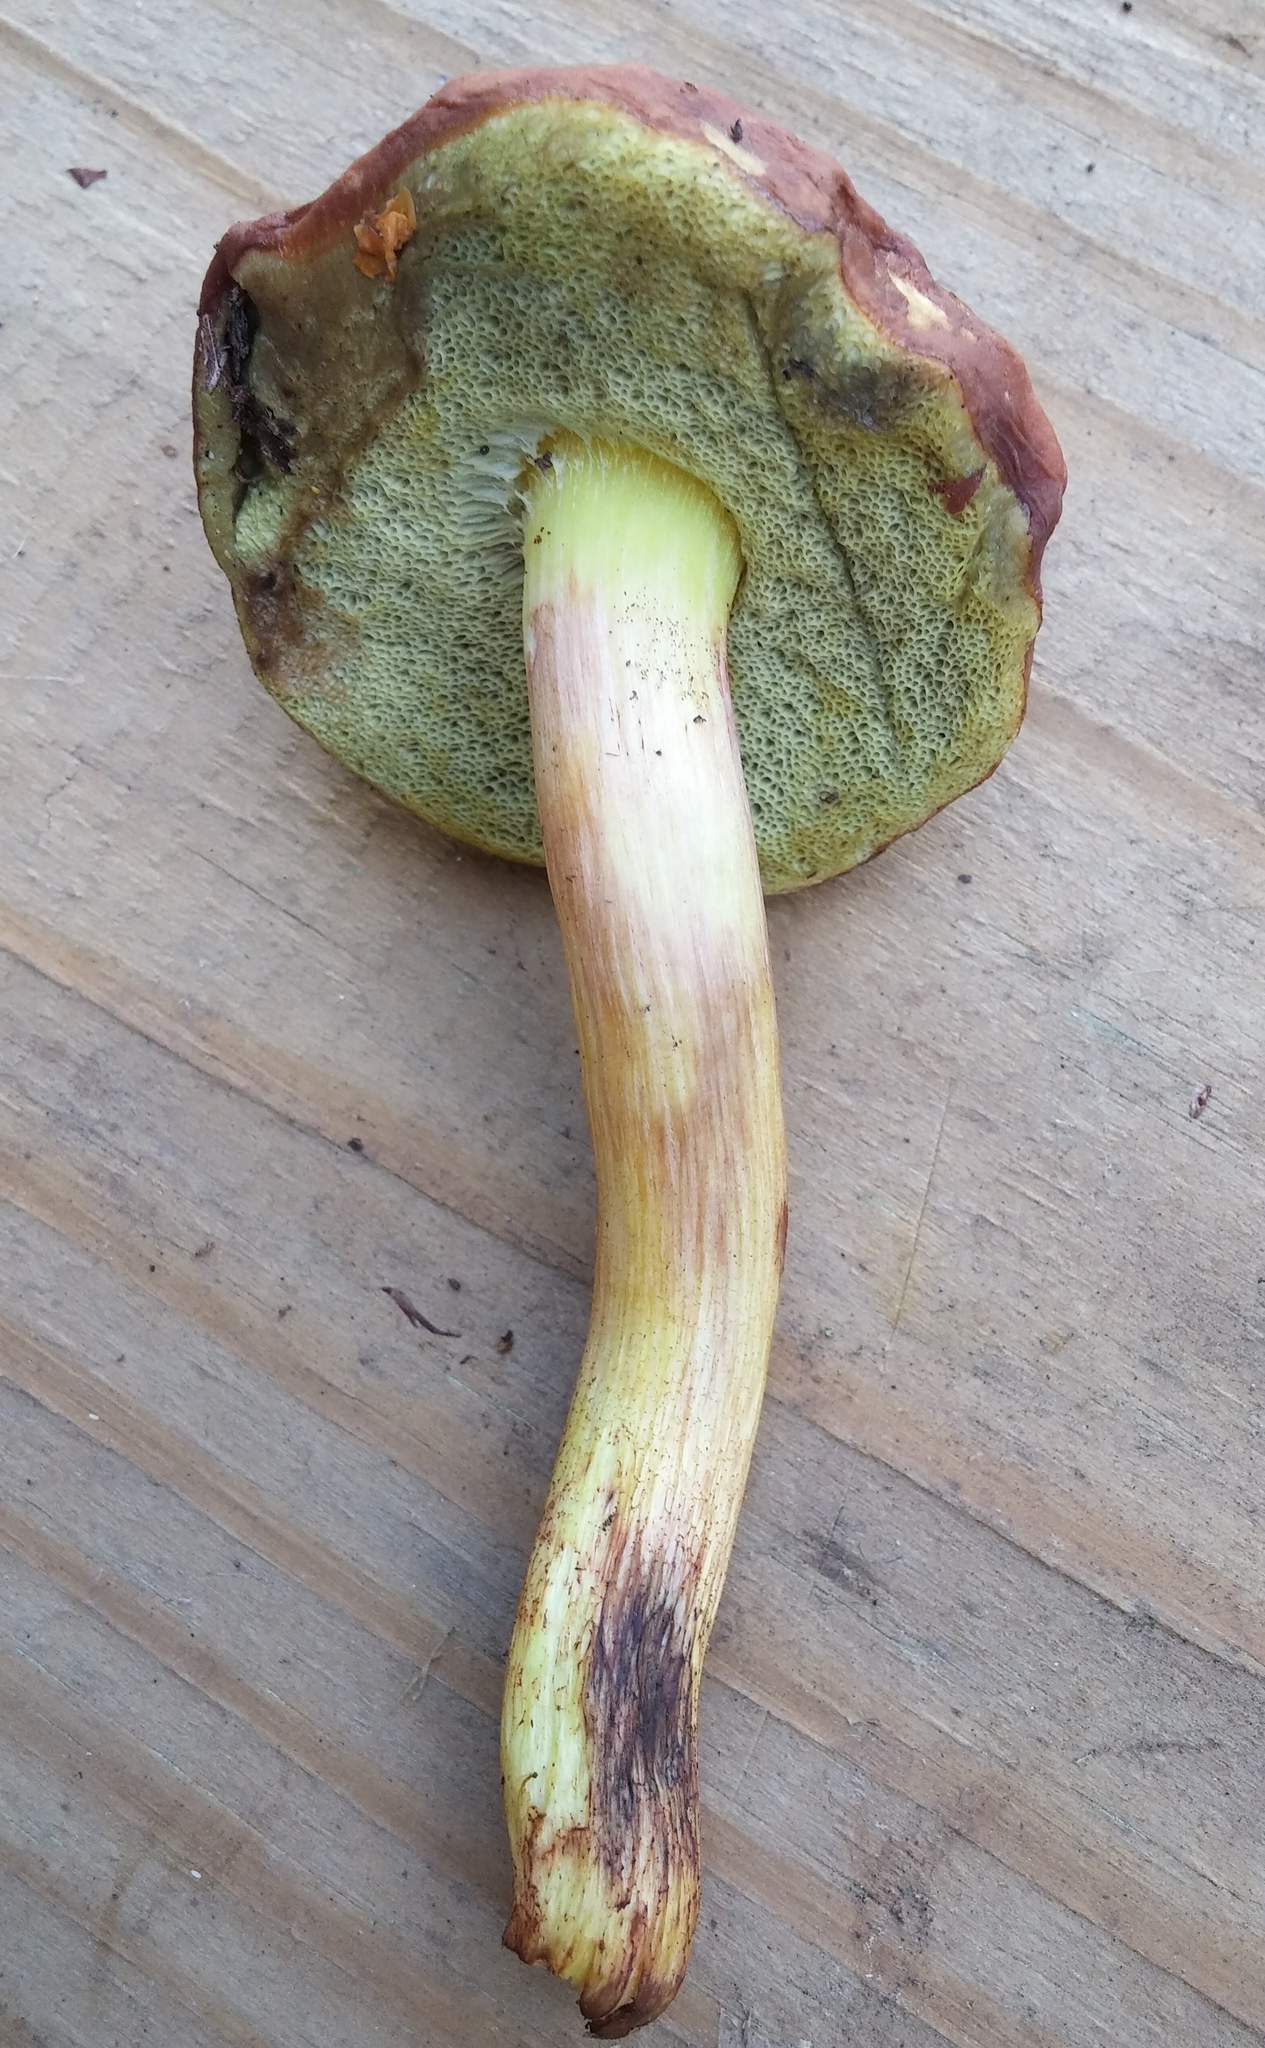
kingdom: Fungi
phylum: Basidiomycota
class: Agaricomycetes
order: Boletales
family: Boletaceae
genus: Hemileccinum
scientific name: Hemileccinum subglabripes
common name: Smoothish-stemmed bolete
